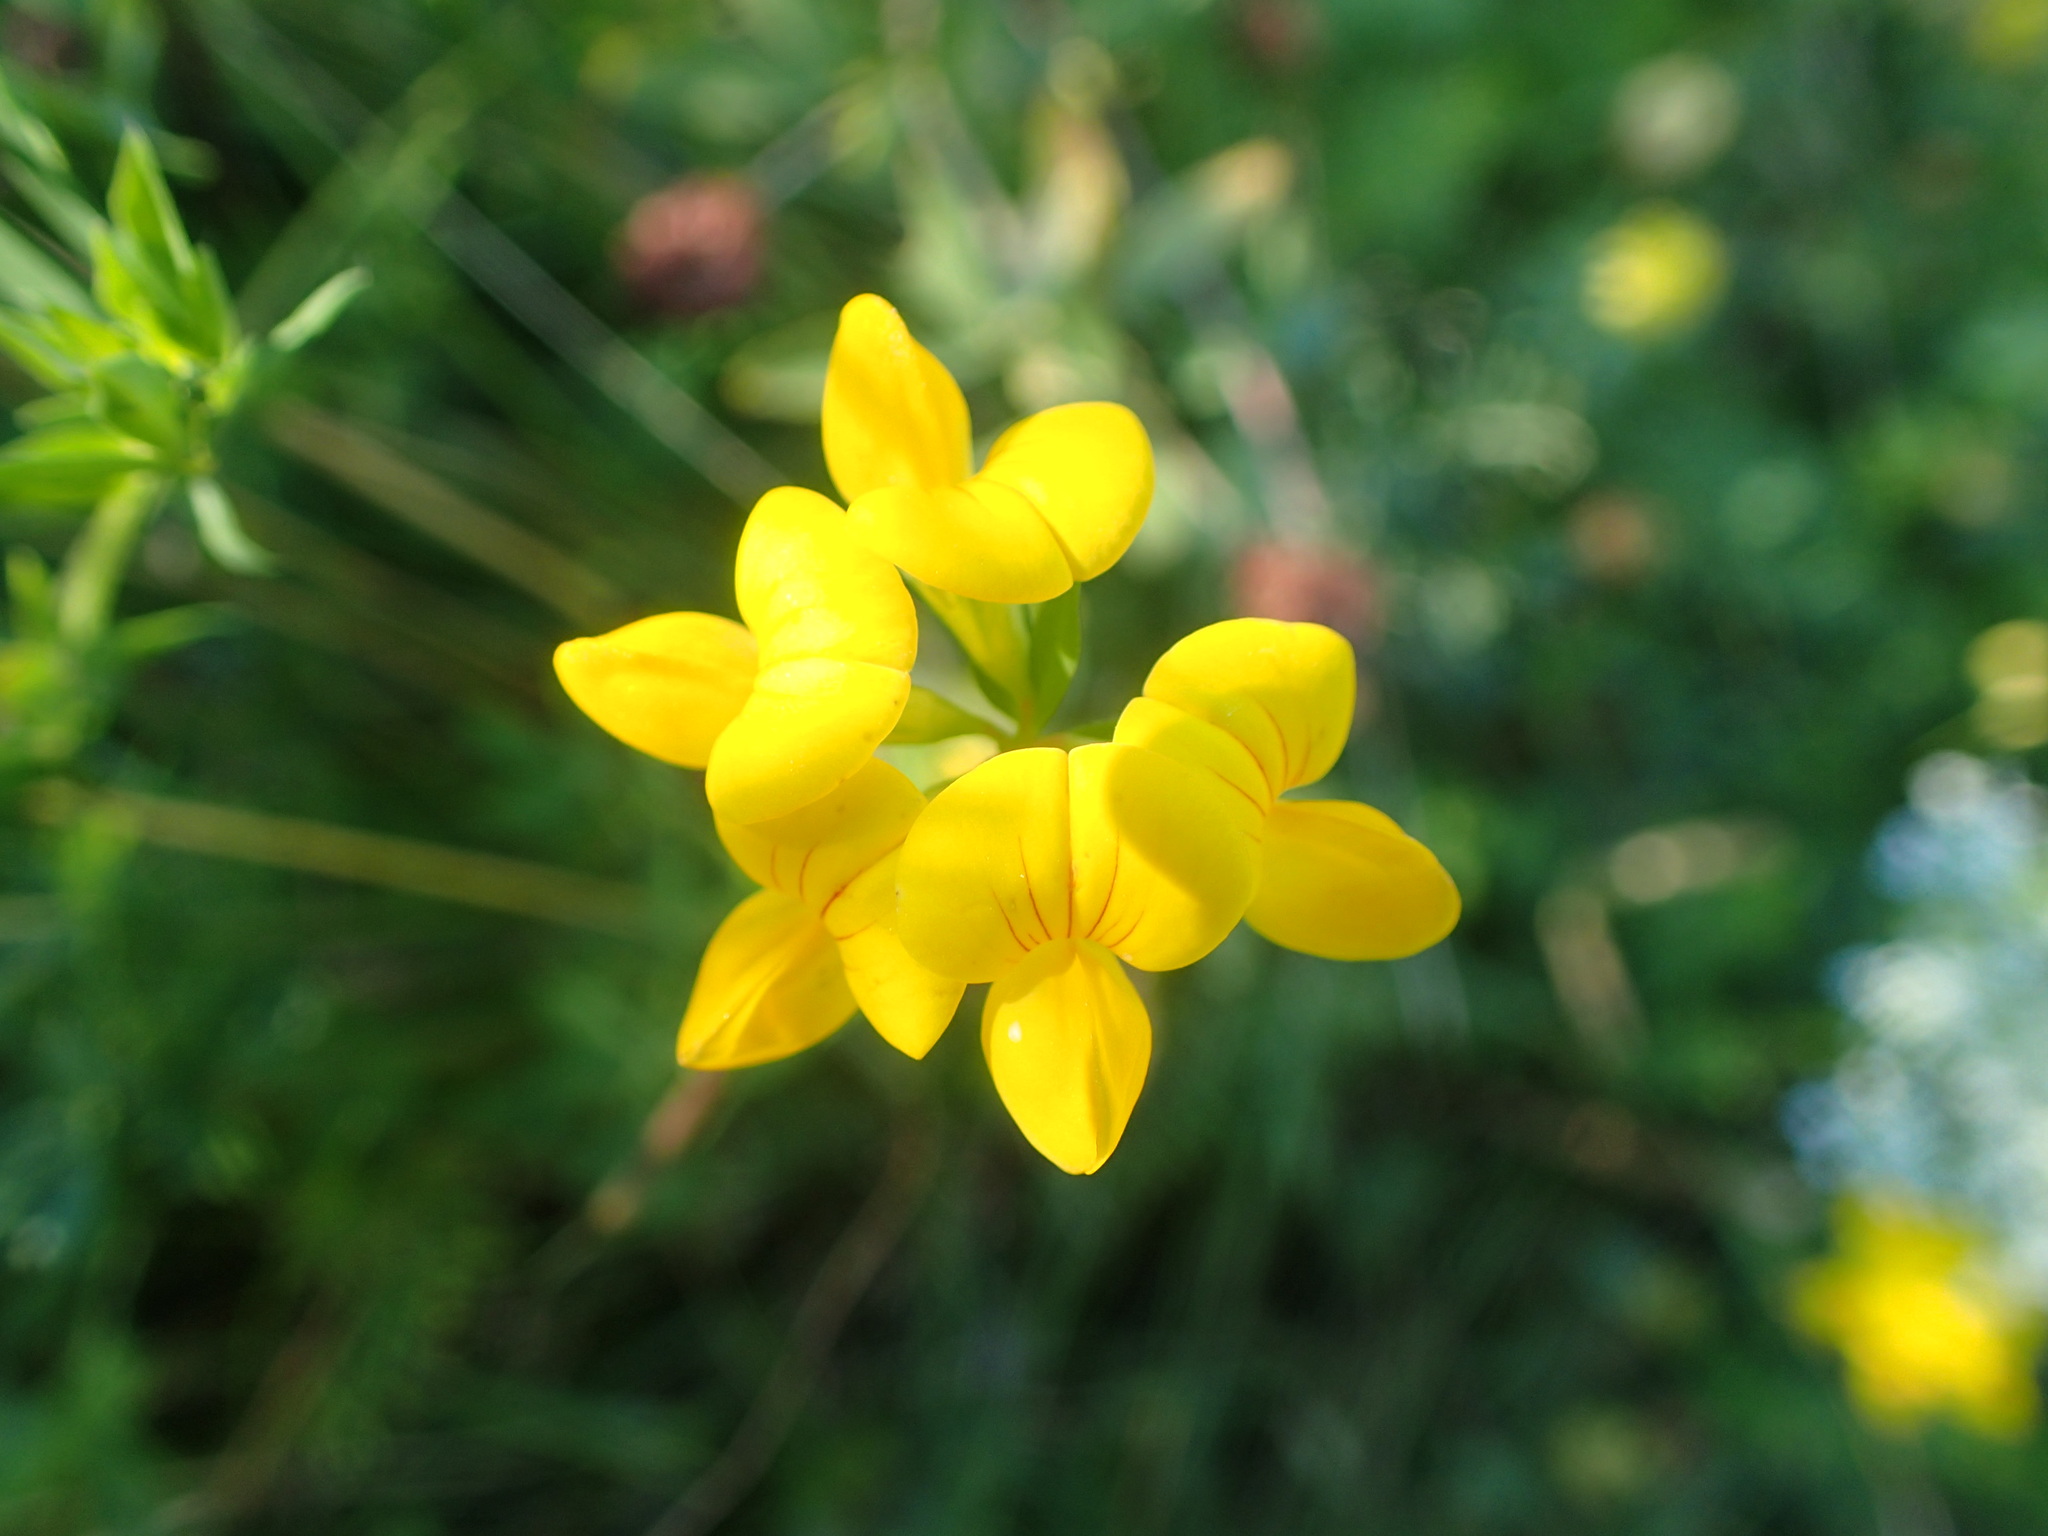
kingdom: Plantae
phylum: Tracheophyta
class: Magnoliopsida
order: Fabales
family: Fabaceae
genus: Lotus
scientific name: Lotus corniculatus
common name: Common bird's-foot-trefoil
